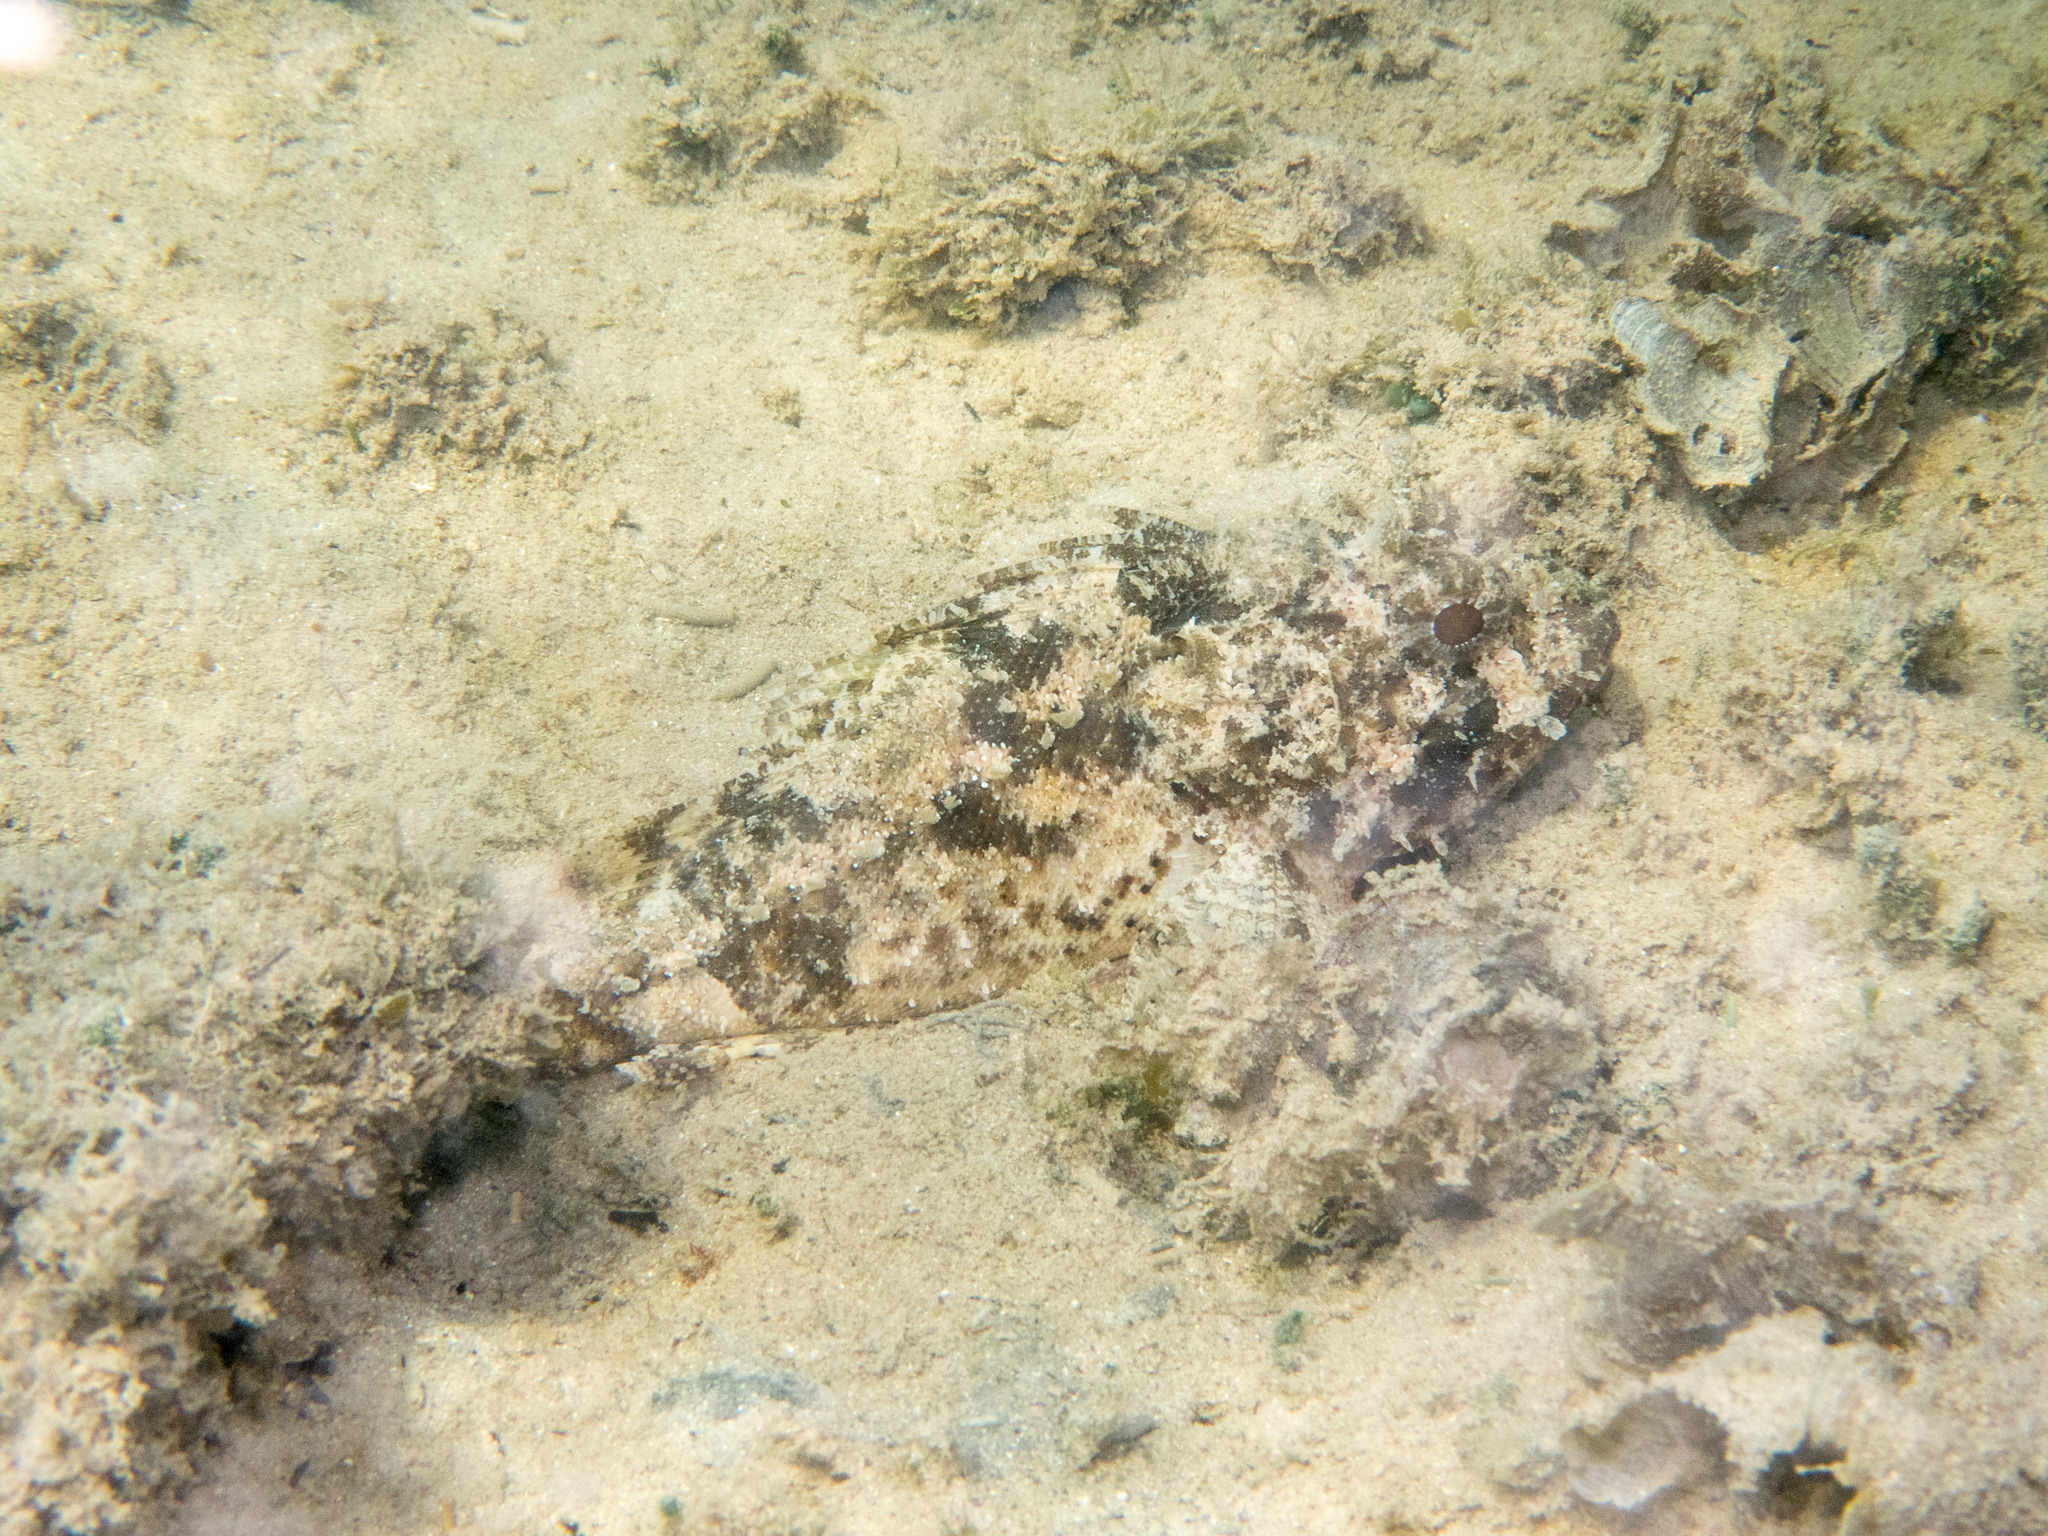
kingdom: Animalia
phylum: Chordata
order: Scorpaeniformes
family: Scorpaenidae
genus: Scorpaena
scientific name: Scorpaena porcus
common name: Black scorpionfish
